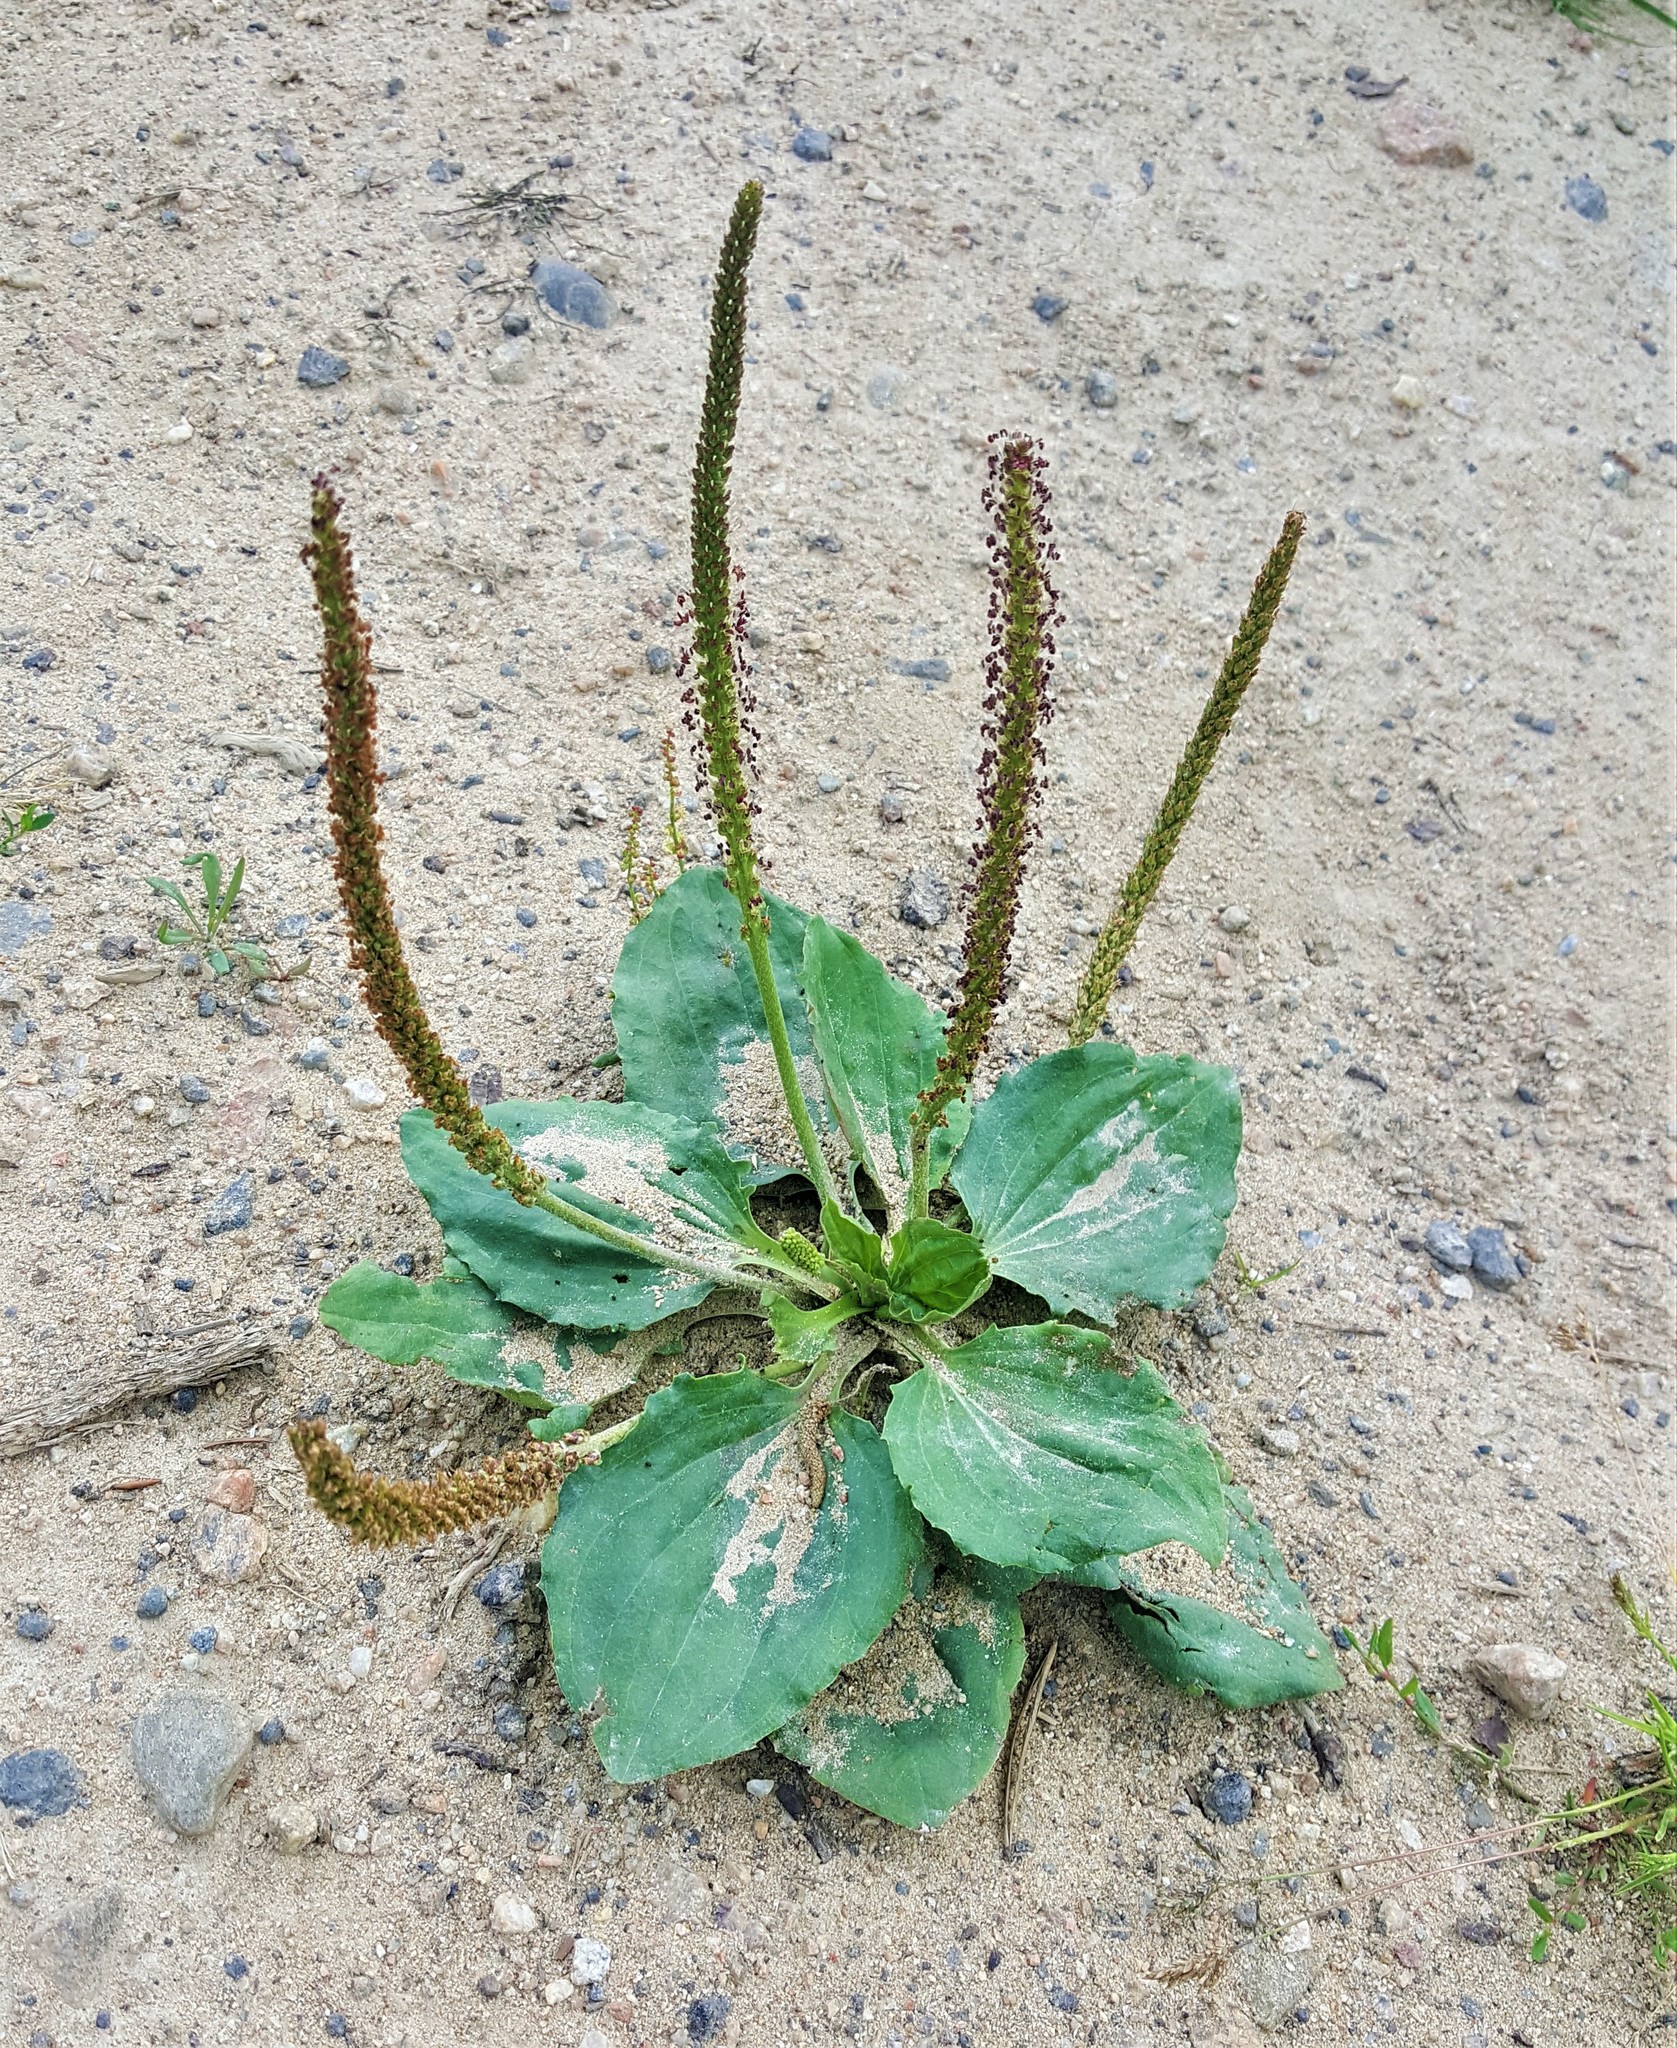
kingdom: Plantae
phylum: Tracheophyta
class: Magnoliopsida
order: Lamiales
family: Plantaginaceae
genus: Plantago
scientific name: Plantago major
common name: Common plantain
